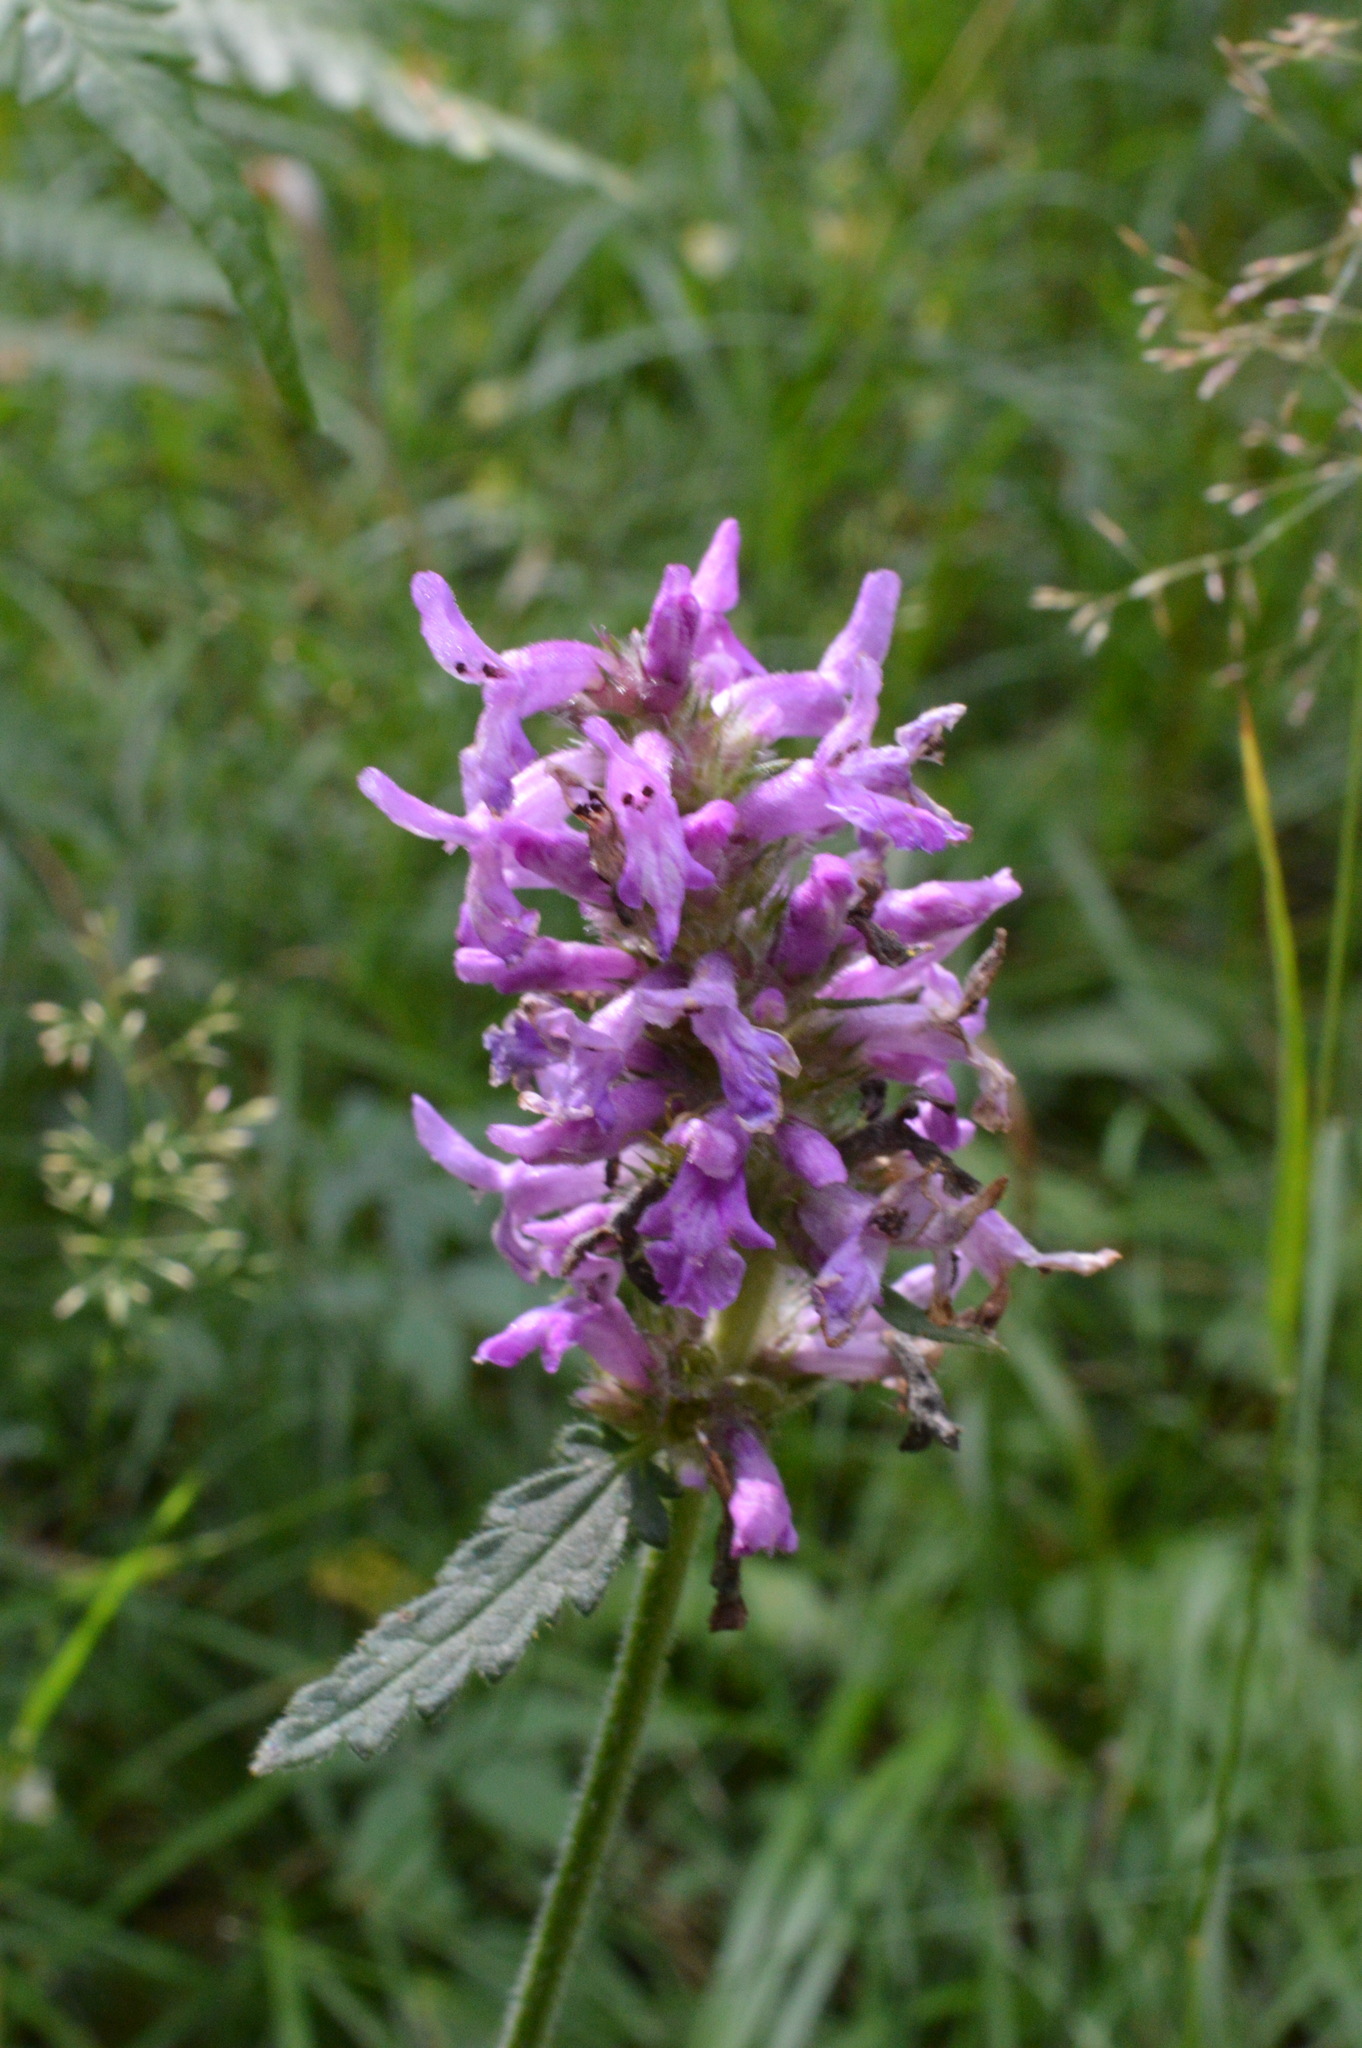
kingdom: Plantae
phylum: Tracheophyta
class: Magnoliopsida
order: Lamiales
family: Lamiaceae
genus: Betonica
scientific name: Betonica officinalis
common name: Bishop's-wort
